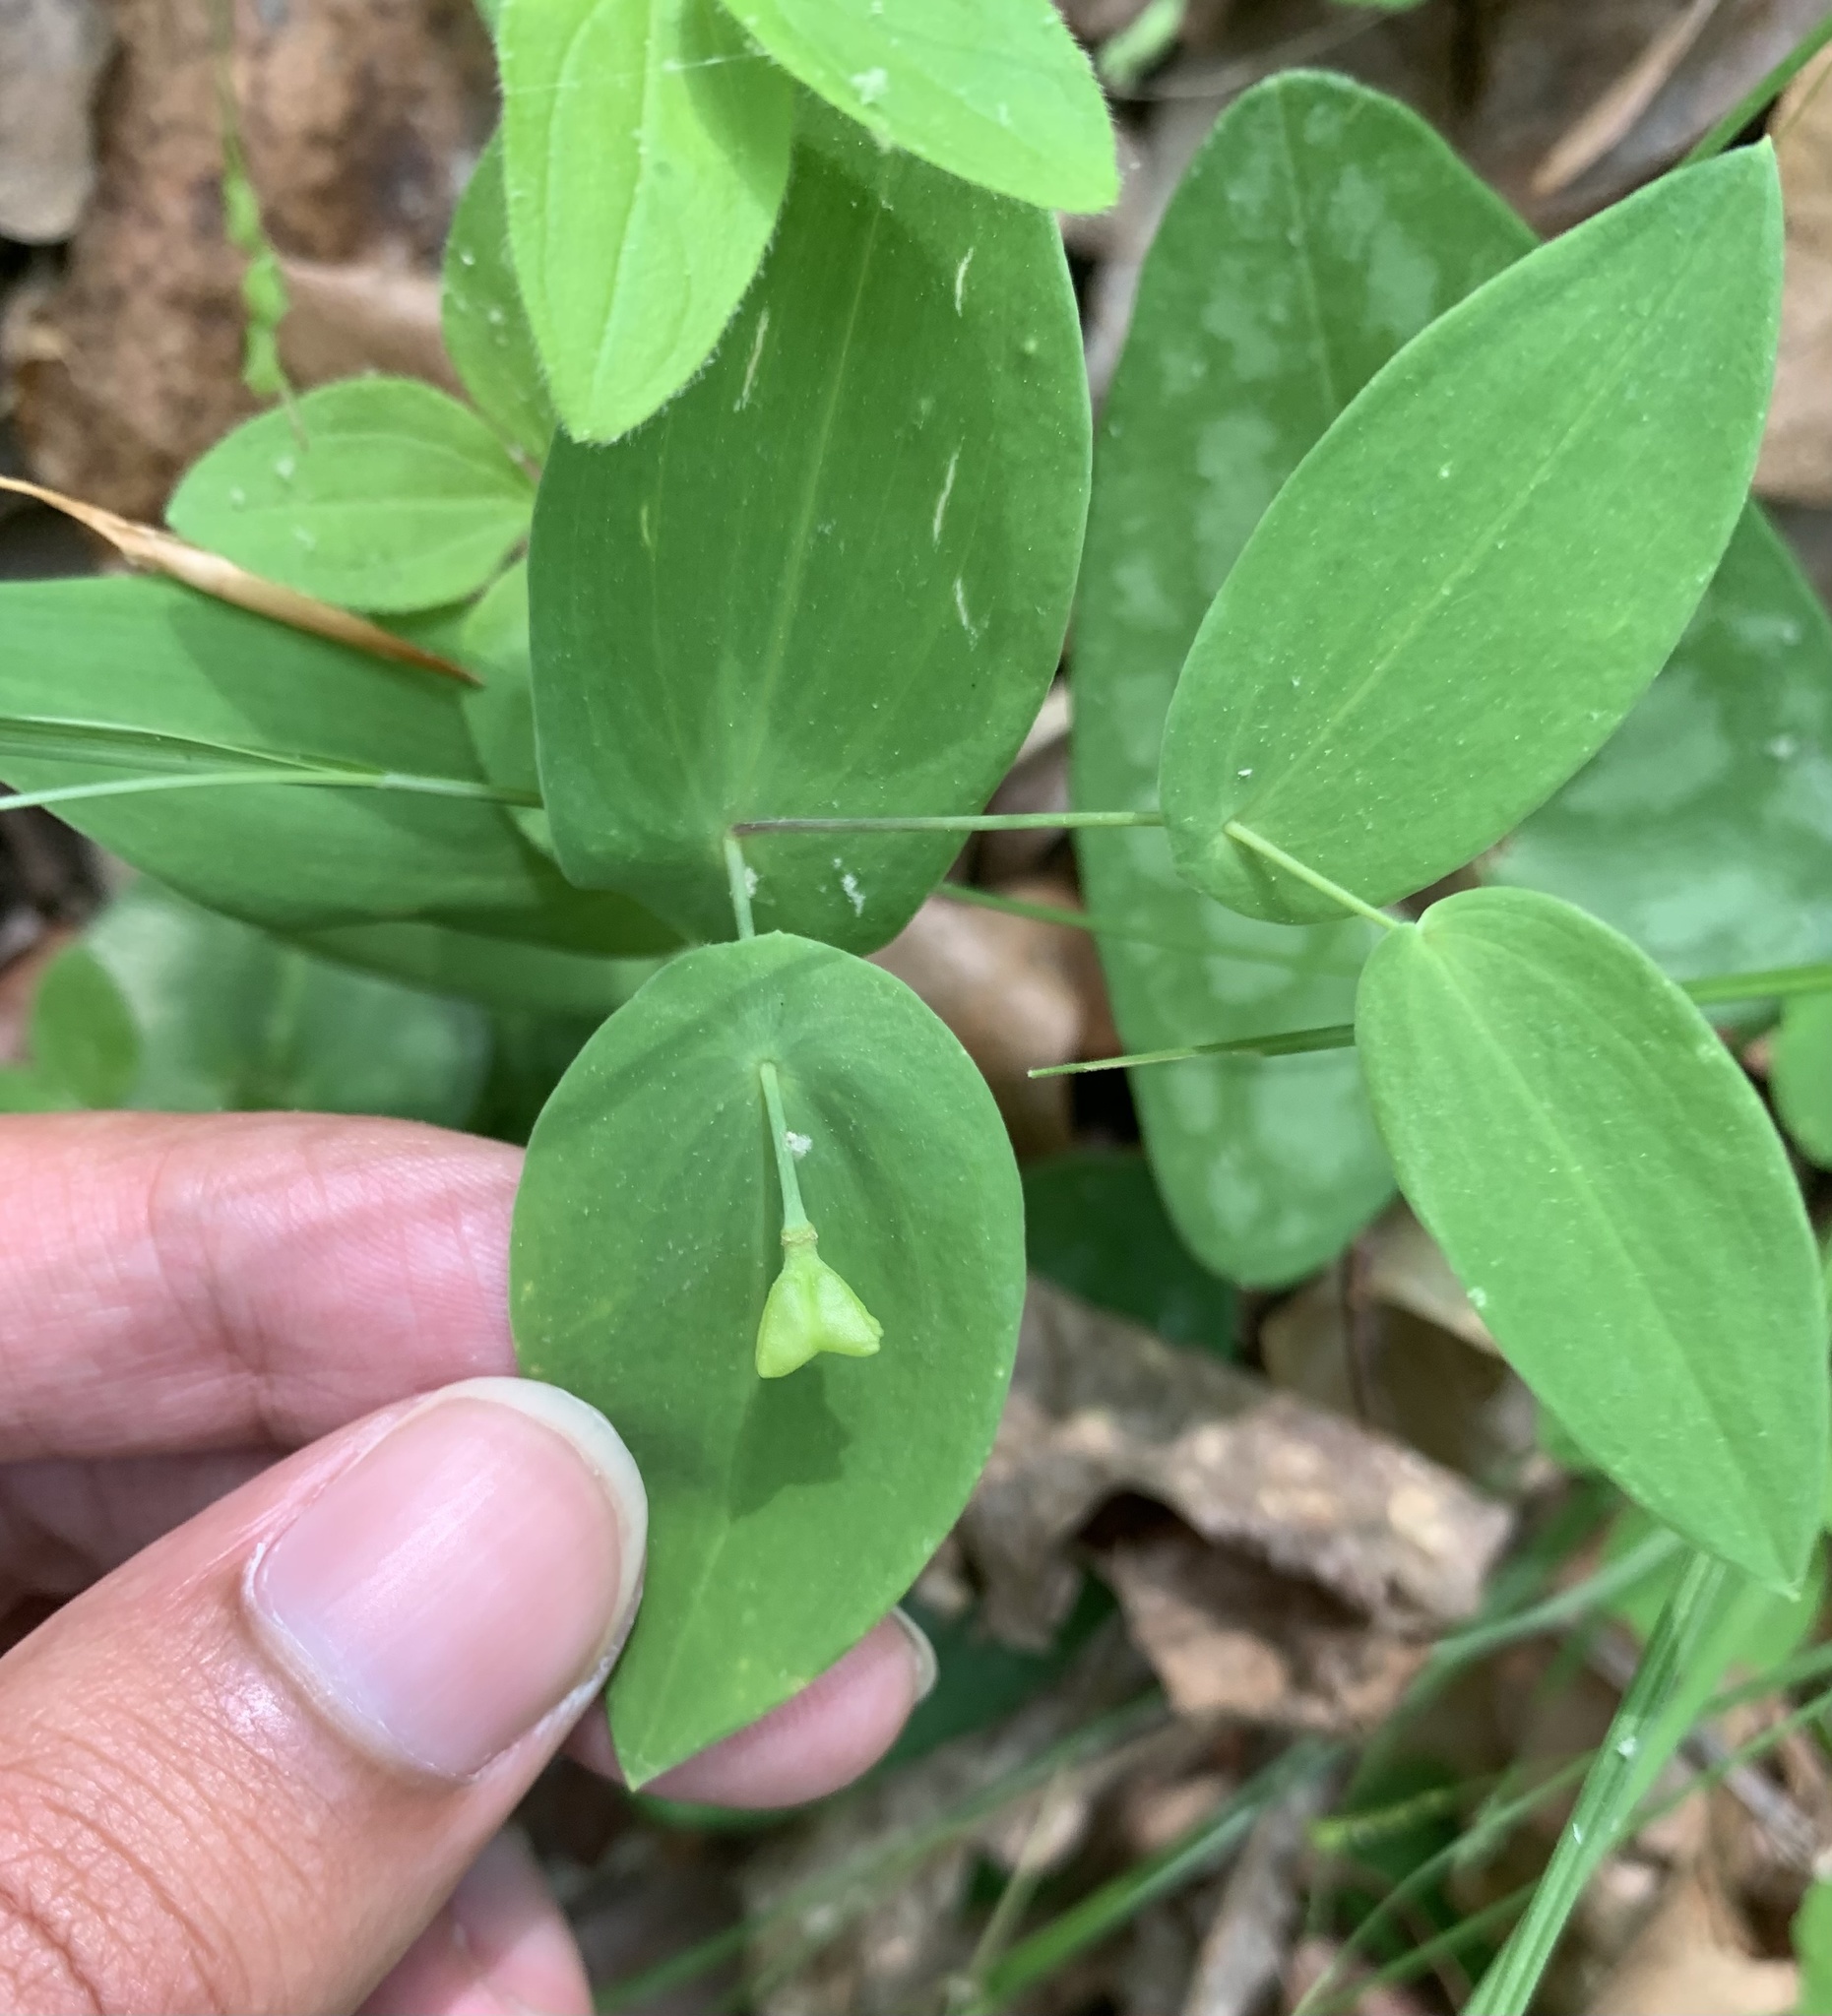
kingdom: Plantae
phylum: Tracheophyta
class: Liliopsida
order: Liliales
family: Colchicaceae
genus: Uvularia
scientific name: Uvularia perfoliata
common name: Perfoliate bellwort
